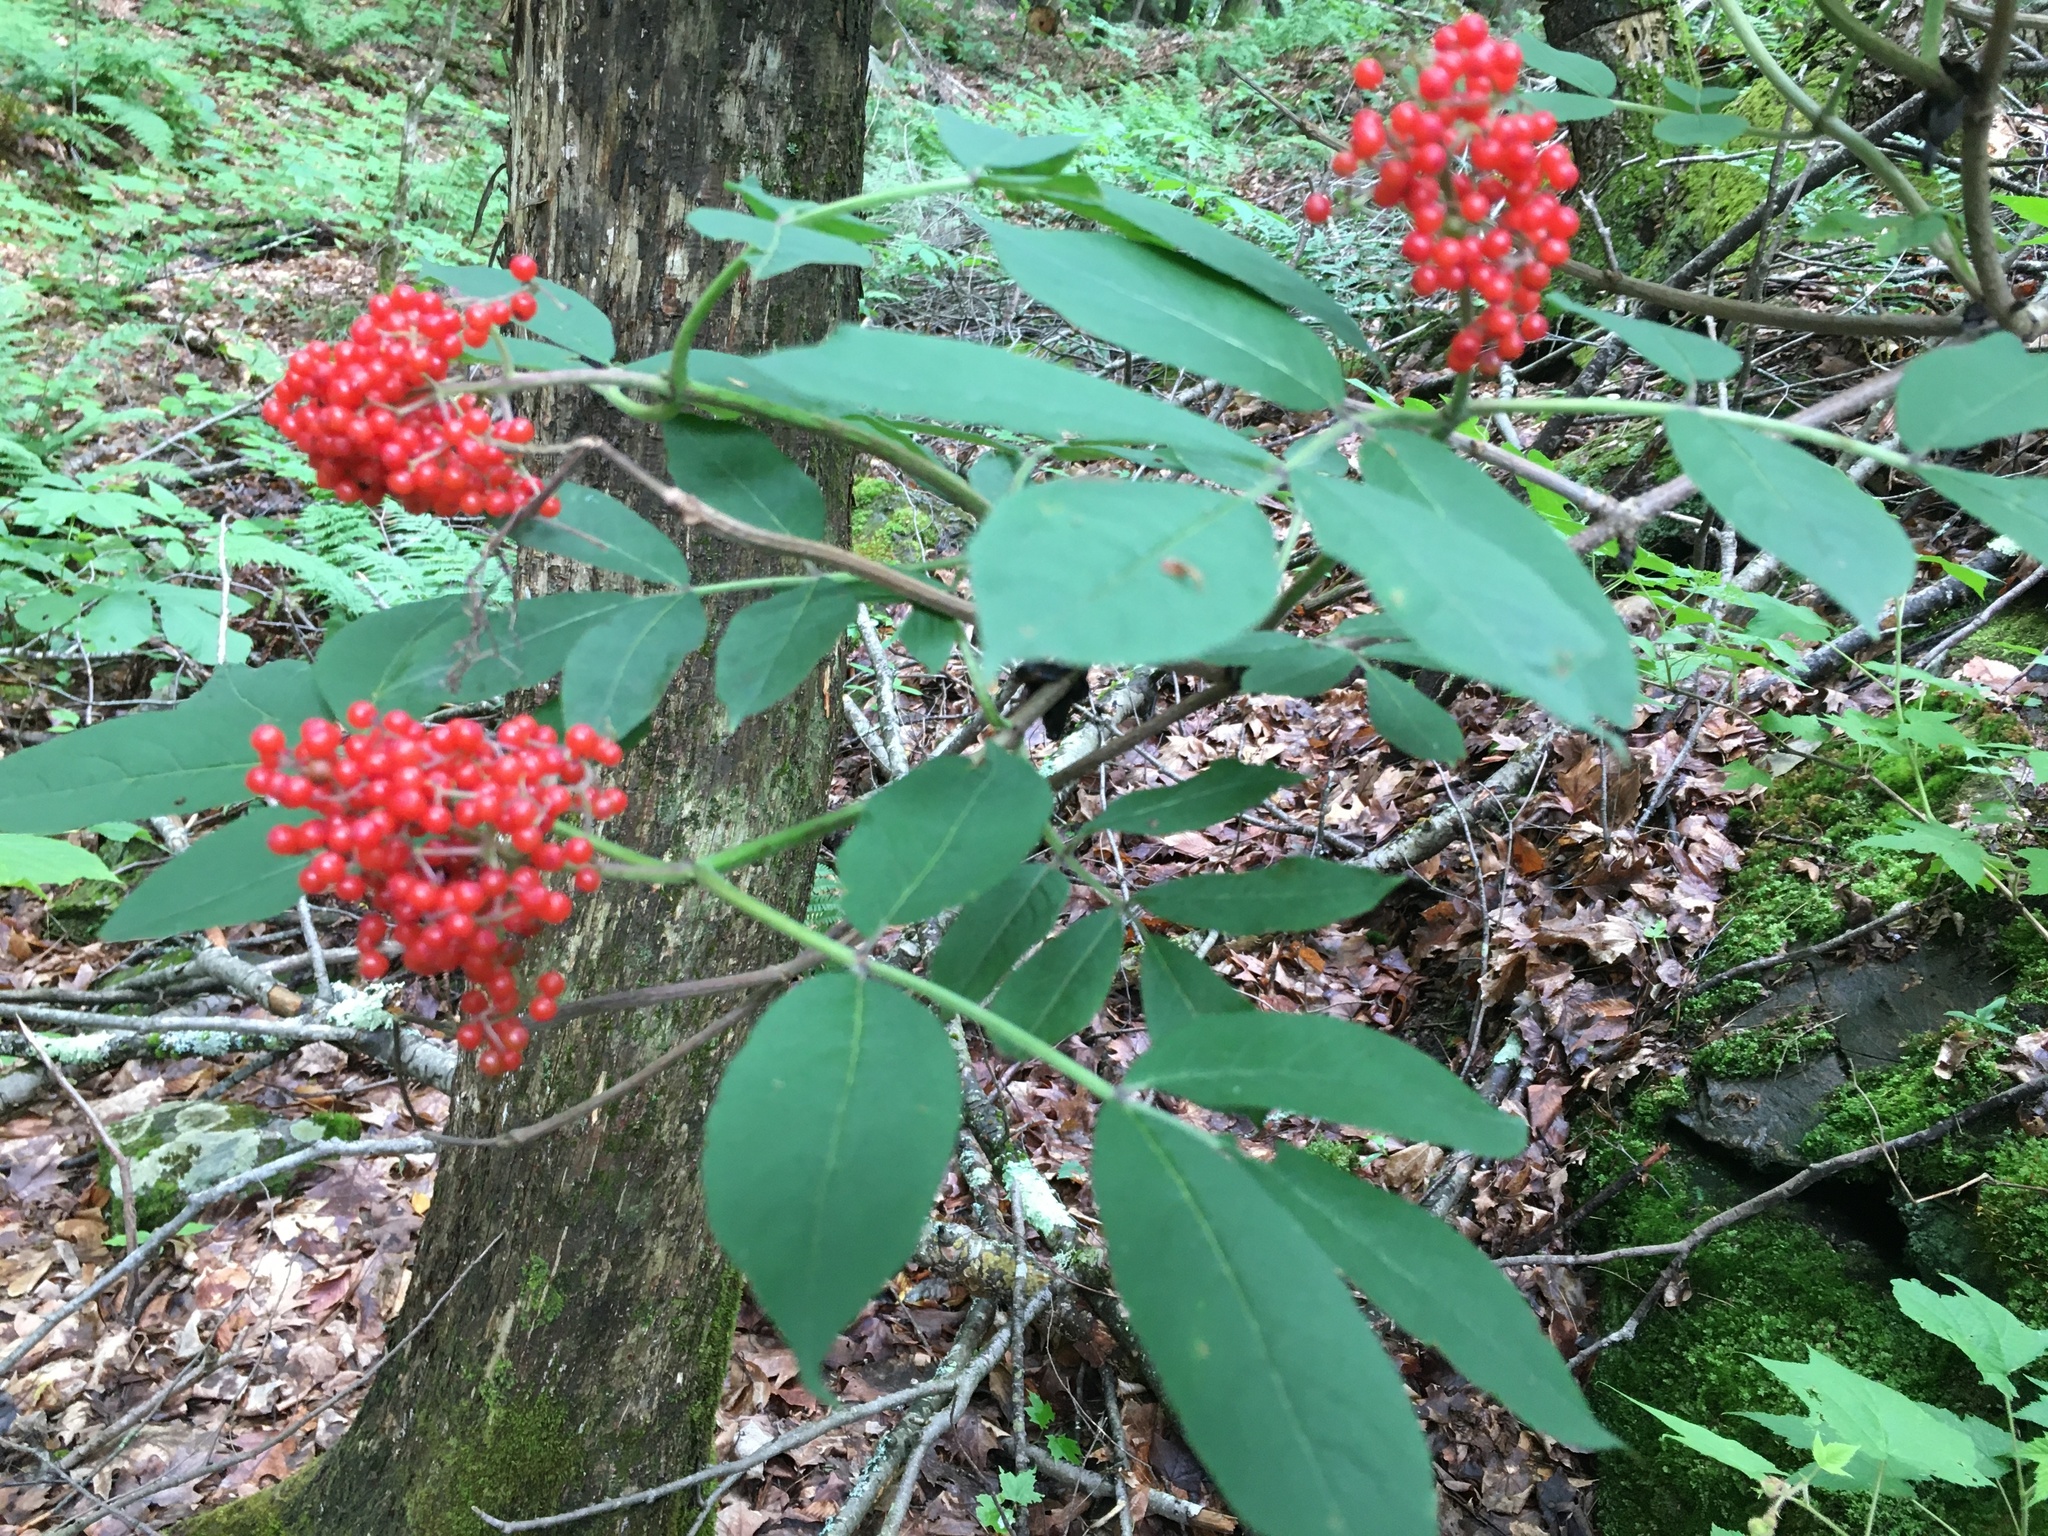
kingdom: Plantae
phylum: Tracheophyta
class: Magnoliopsida
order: Dipsacales
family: Viburnaceae
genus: Sambucus
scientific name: Sambucus racemosa
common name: Red-berried elder
